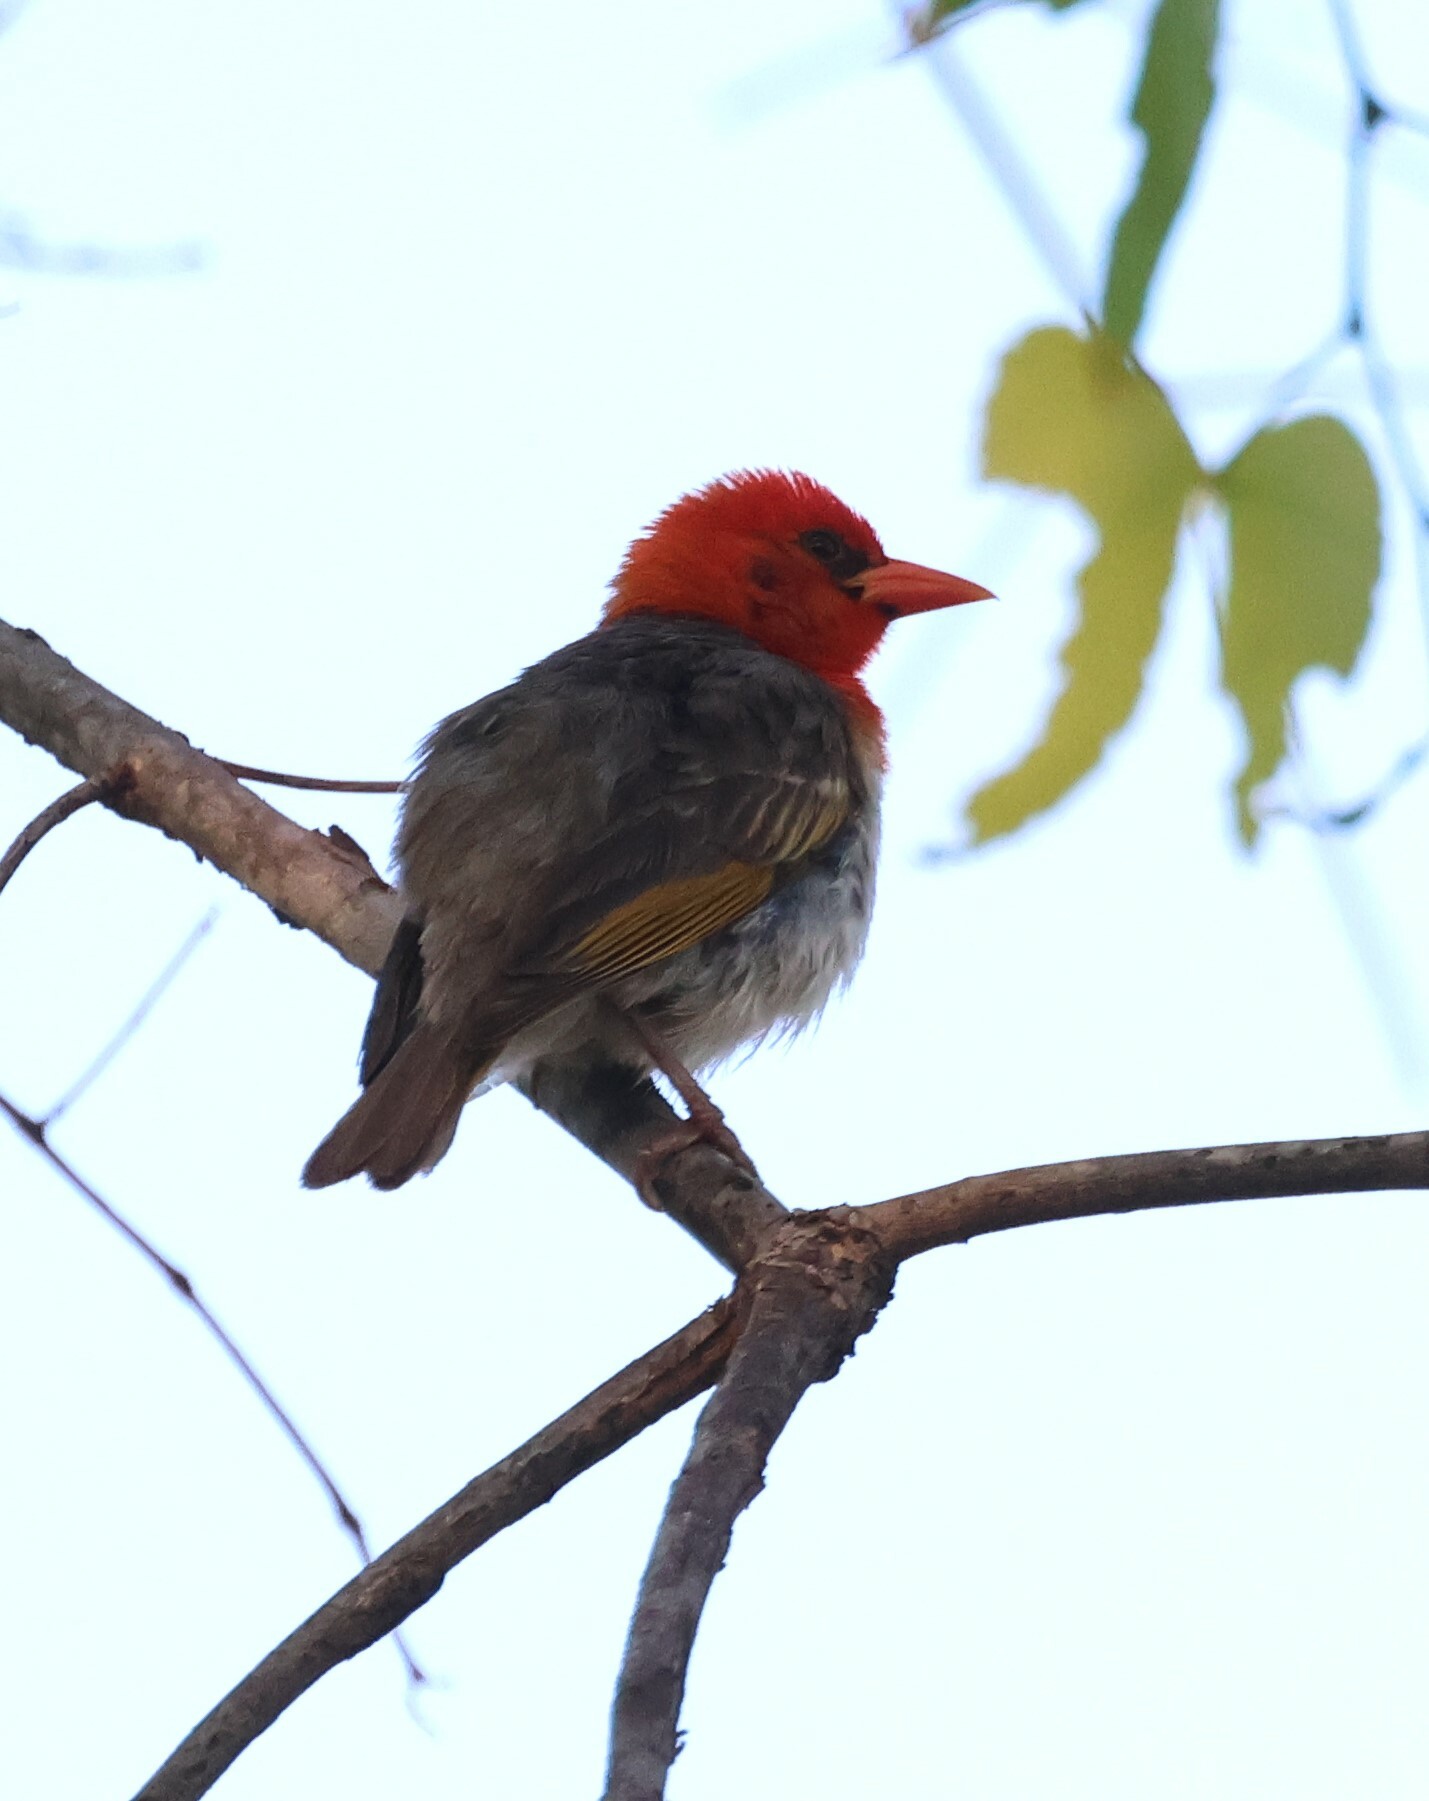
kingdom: Animalia
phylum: Chordata
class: Aves
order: Passeriformes
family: Ploceidae
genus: Anaplectes
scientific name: Anaplectes rubriceps
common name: Red-headed weaver
